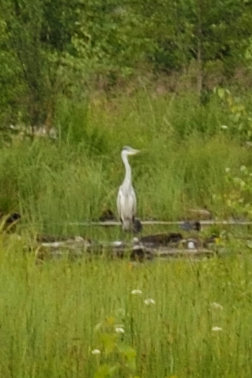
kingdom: Animalia
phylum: Chordata
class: Aves
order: Pelecaniformes
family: Ardeidae
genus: Ardea
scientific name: Ardea cinerea
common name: Grey heron
